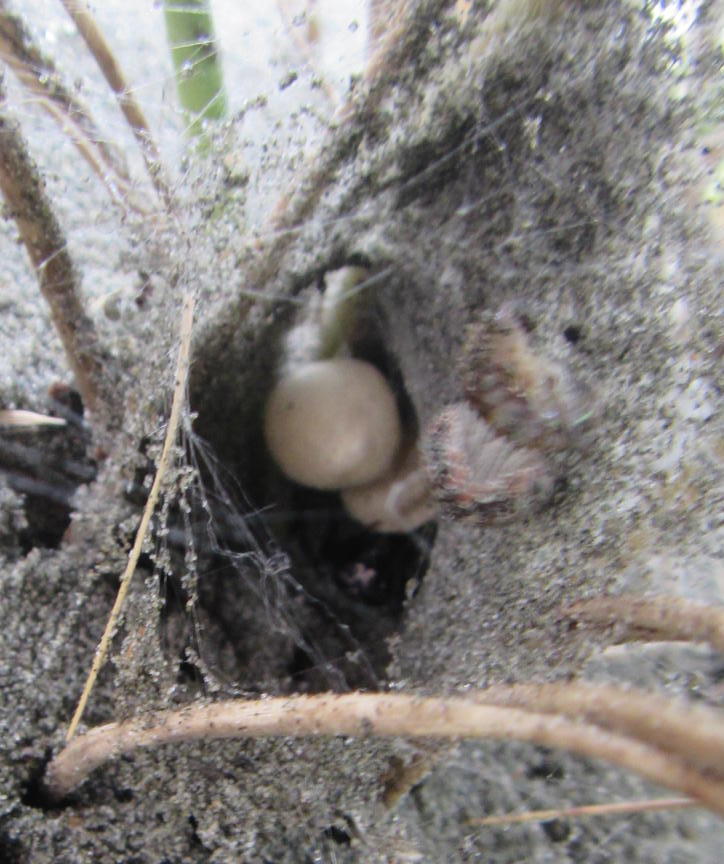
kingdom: Animalia
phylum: Arthropoda
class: Arachnida
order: Araneae
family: Theridiidae
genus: Latrodectus
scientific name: Latrodectus katipo
